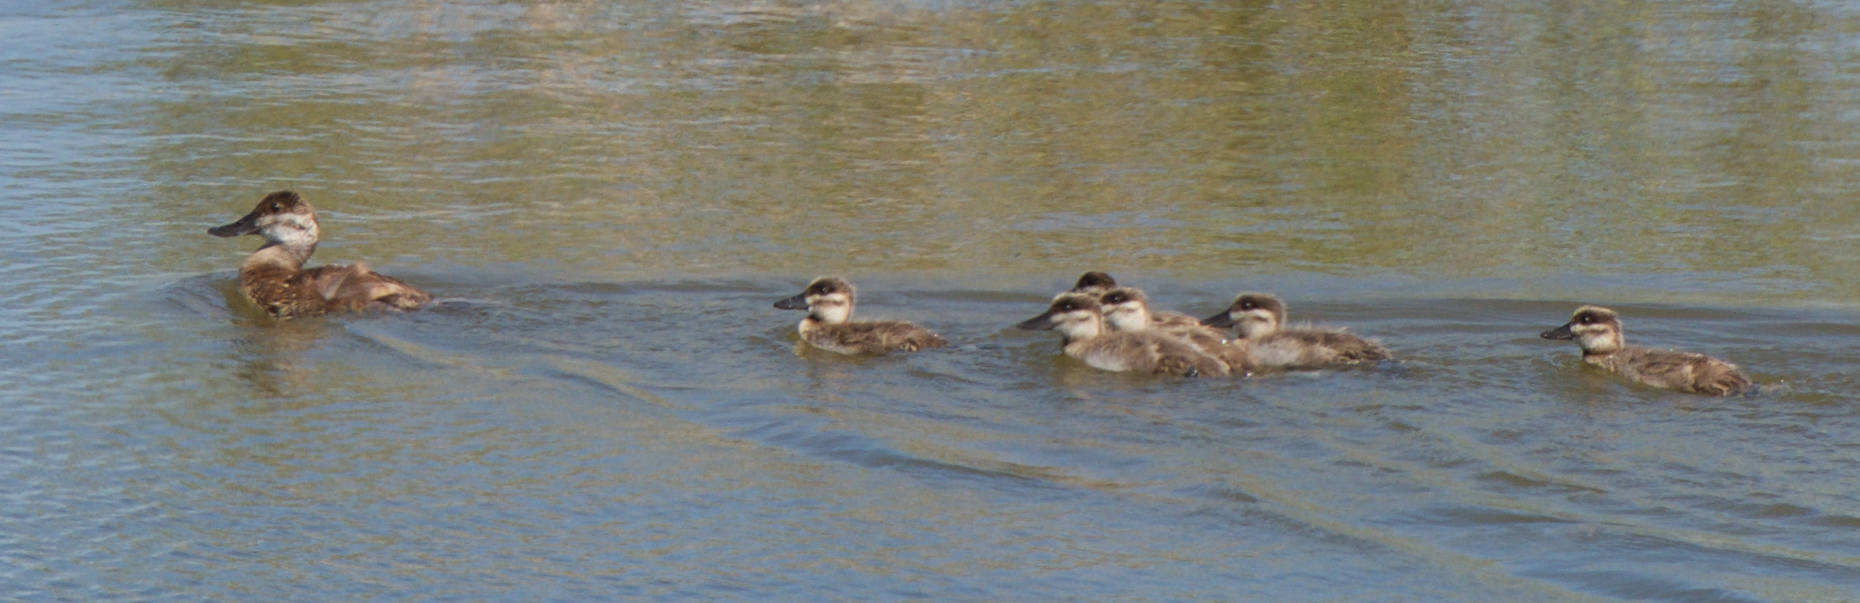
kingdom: Animalia
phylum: Chordata
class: Aves
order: Anseriformes
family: Anatidae
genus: Oxyura
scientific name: Oxyura jamaicensis
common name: Ruddy duck
